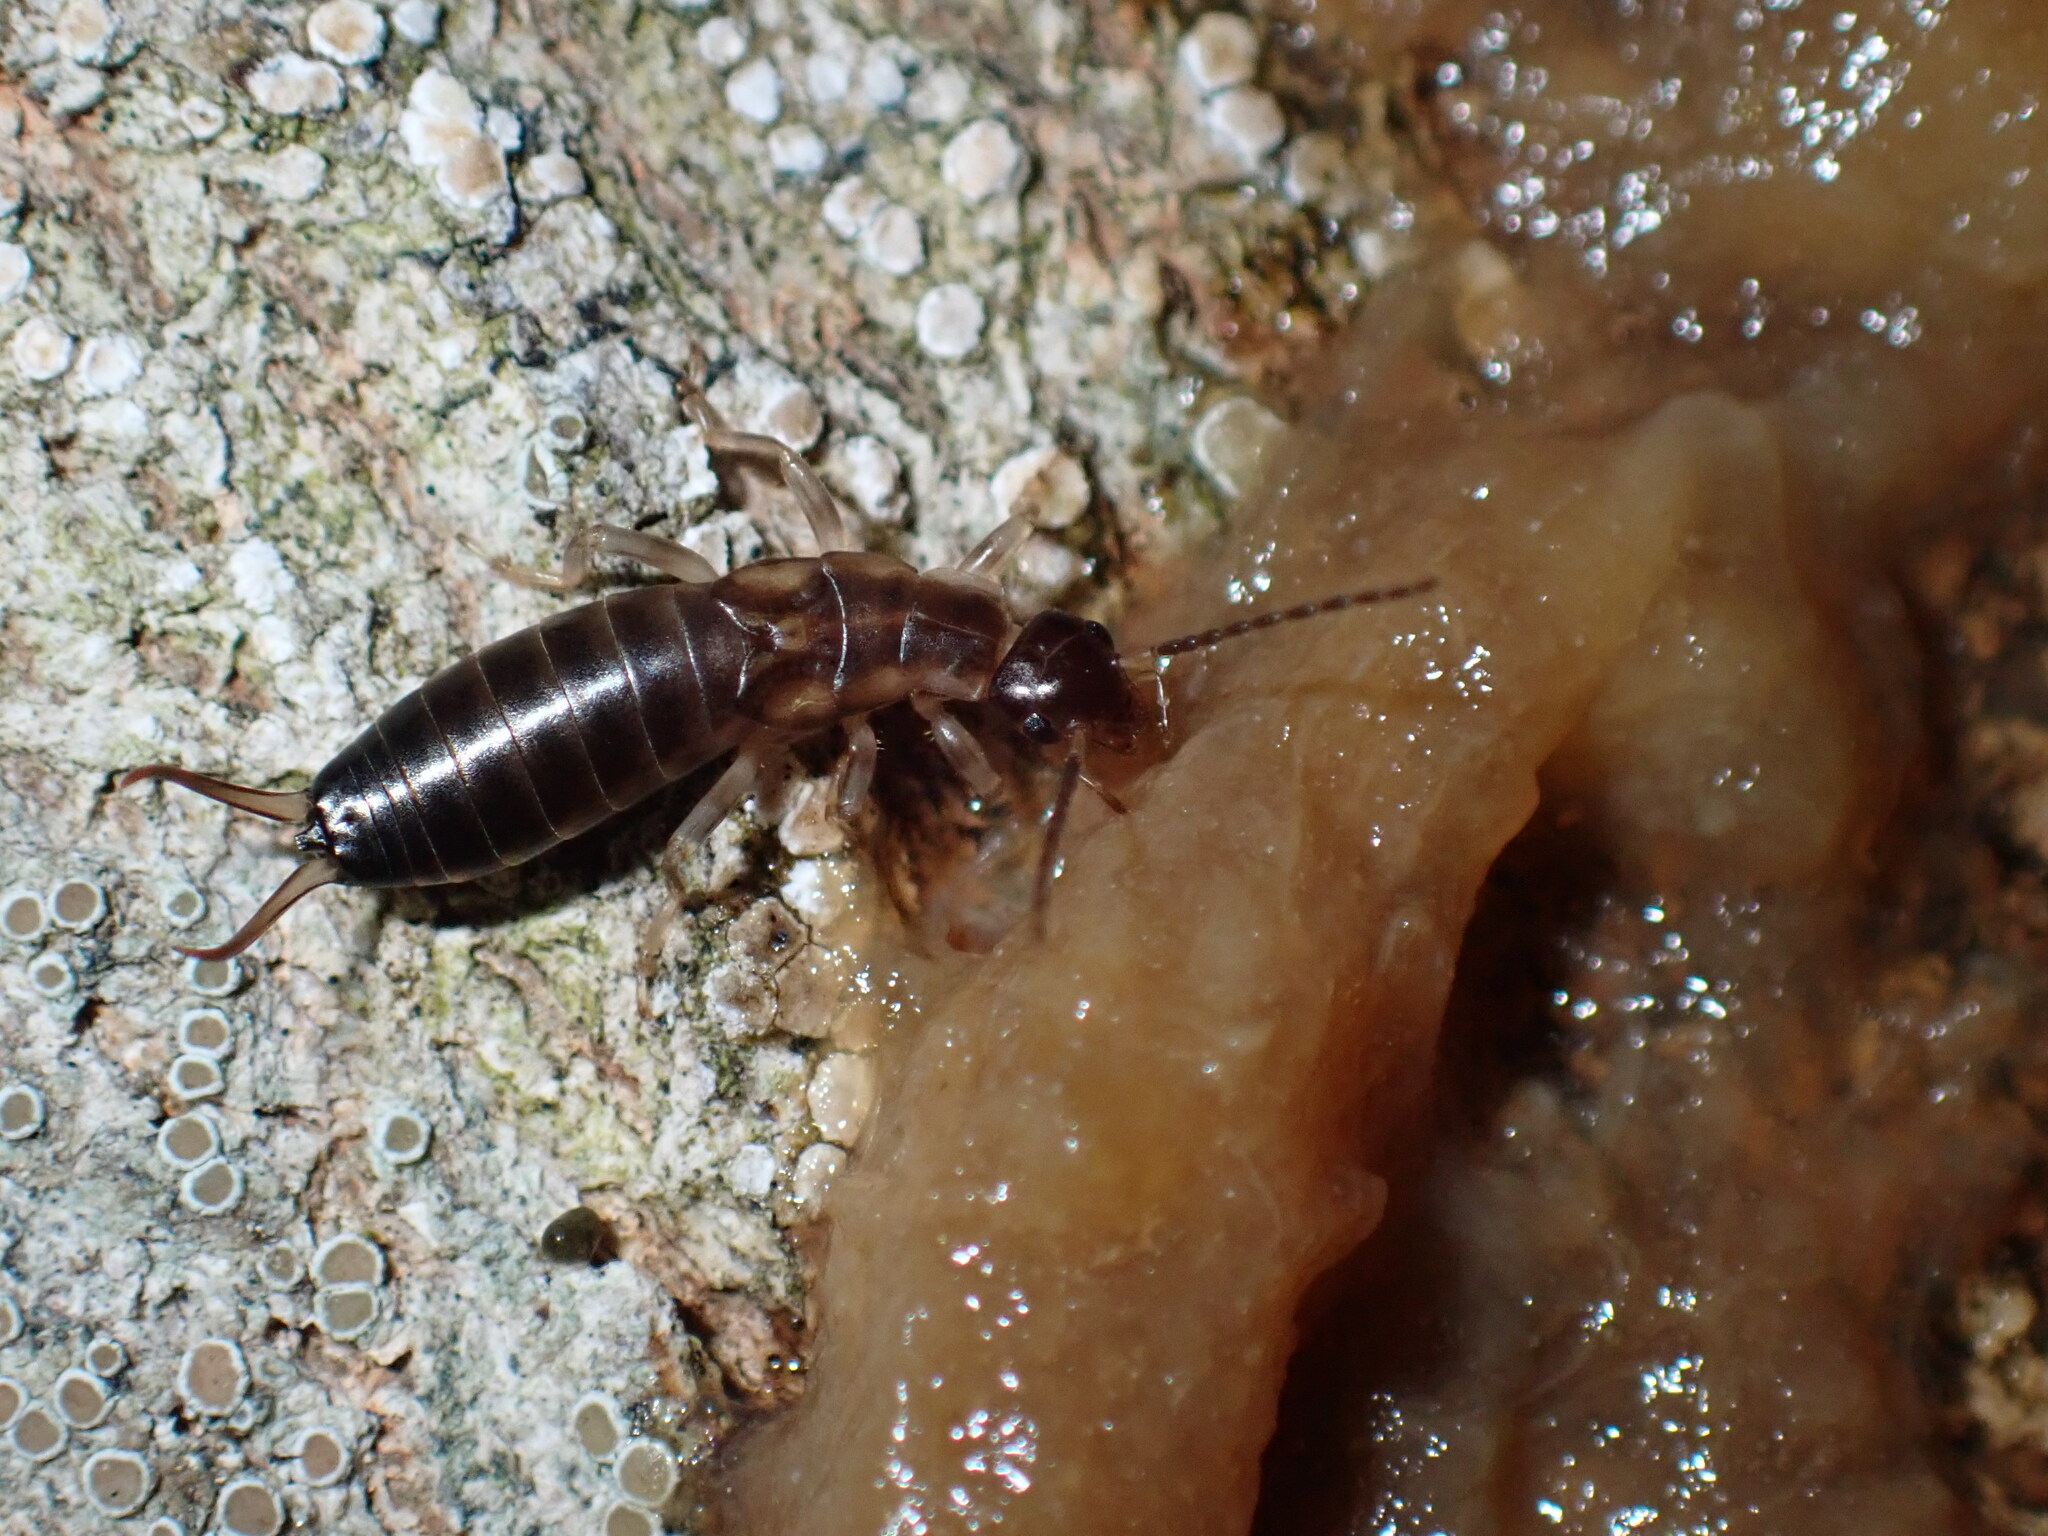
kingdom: Animalia
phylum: Arthropoda
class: Insecta
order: Dermaptera
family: Forficulidae
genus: Forficula
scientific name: Forficula
